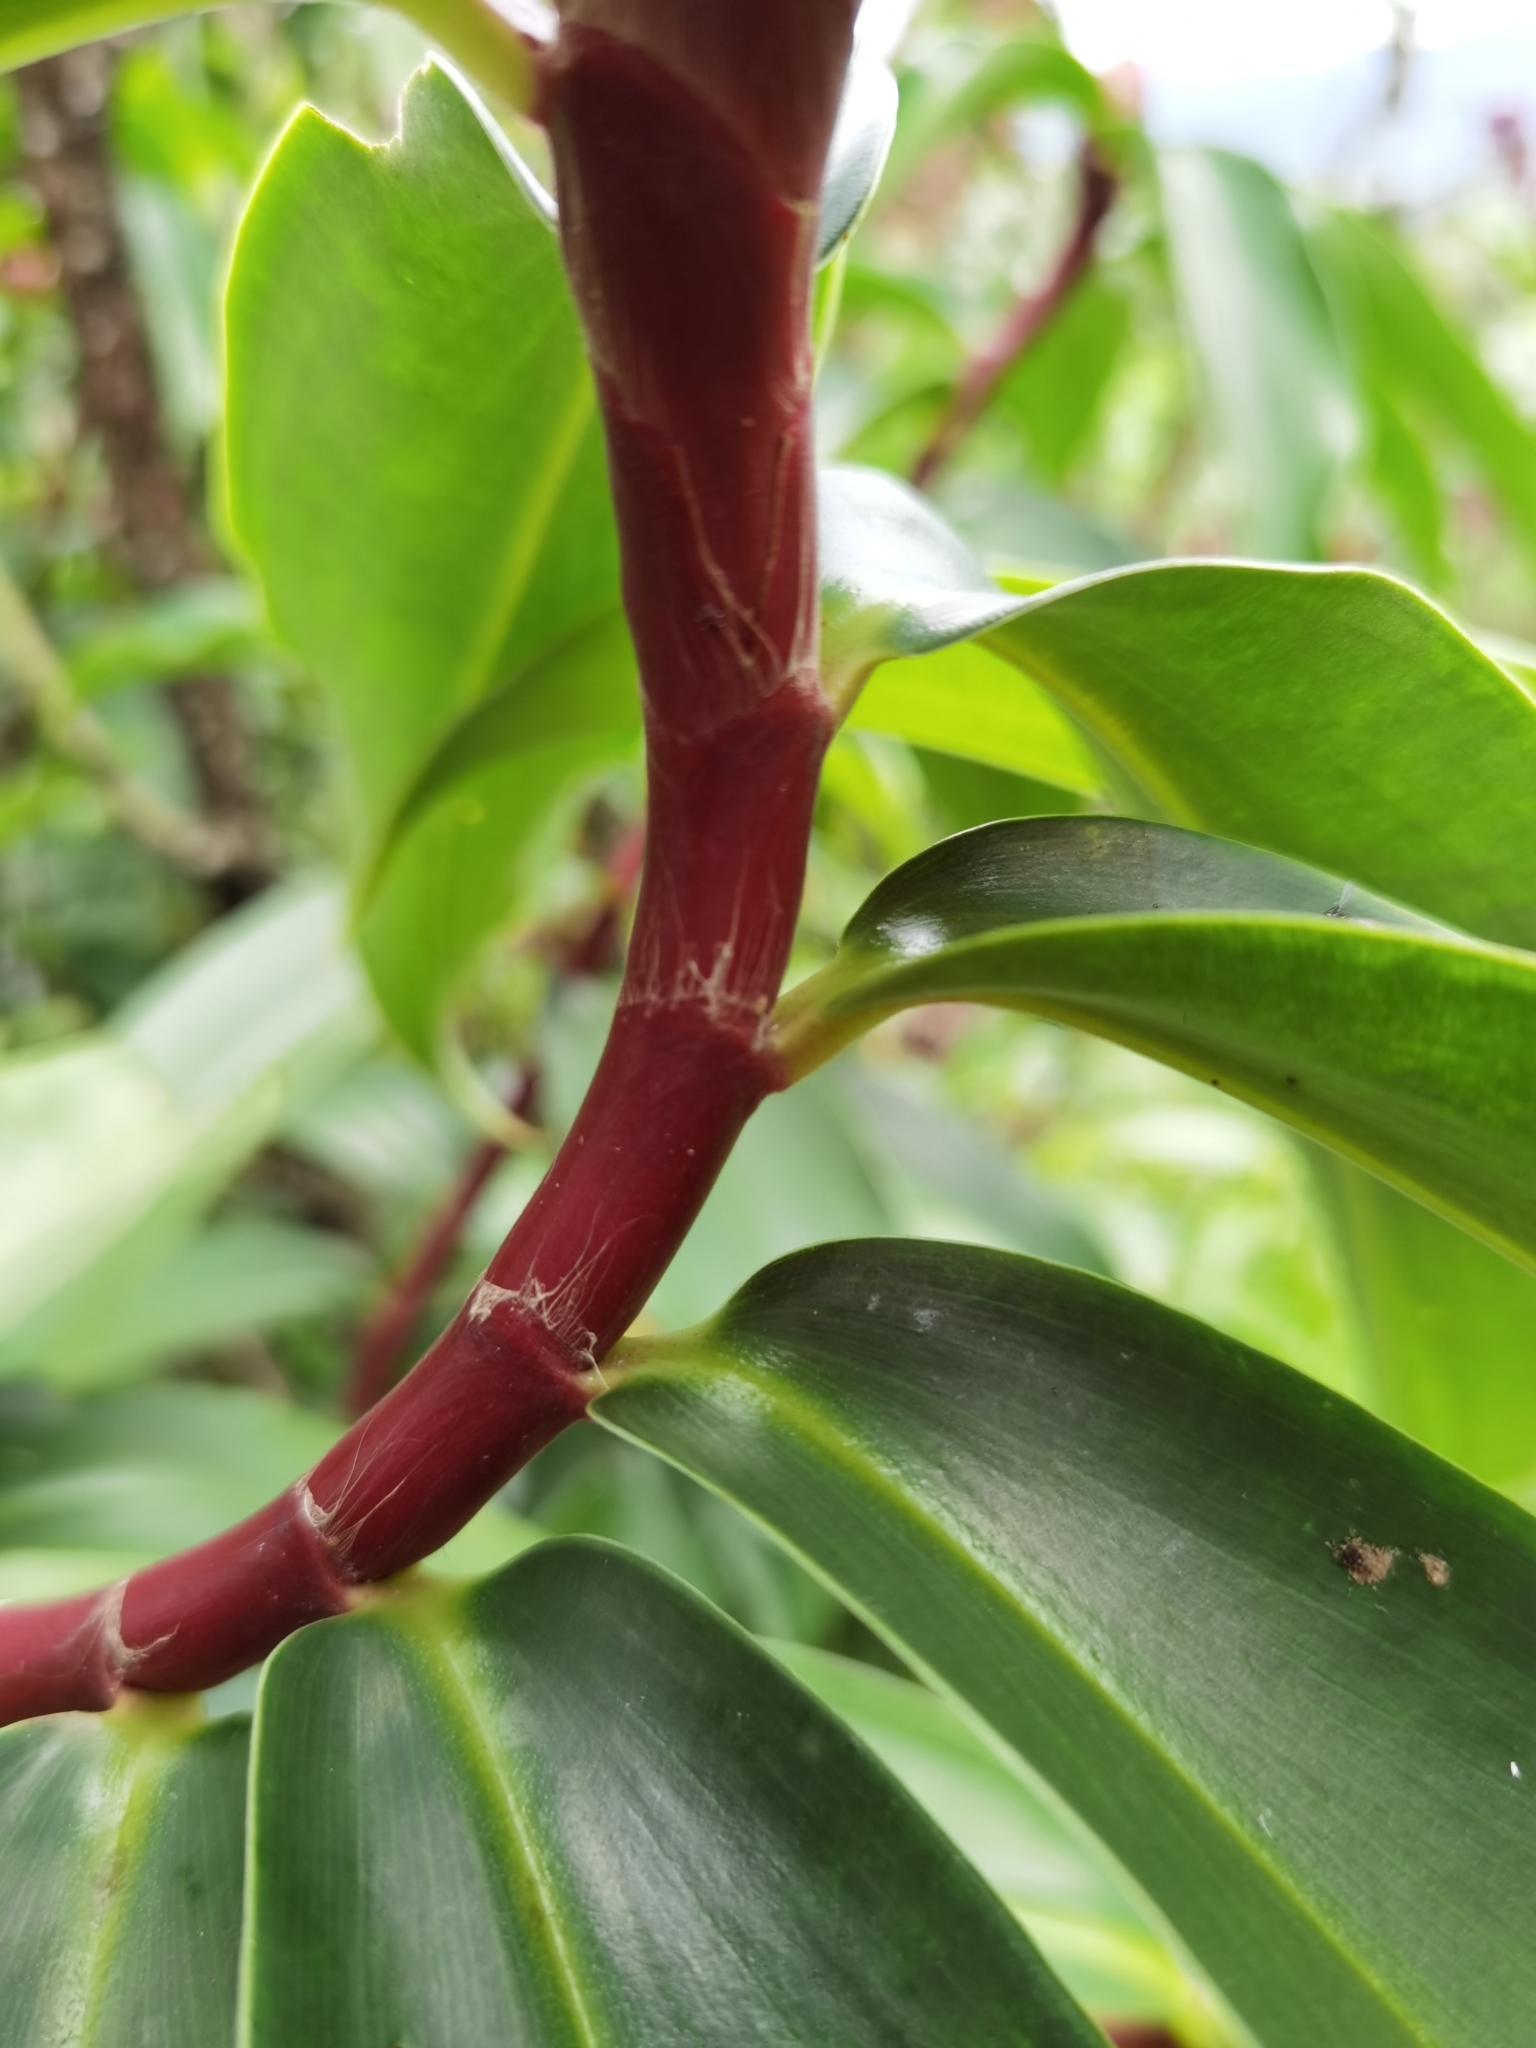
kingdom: Plantae
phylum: Tracheophyta
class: Liliopsida
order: Zingiberales
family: Costaceae
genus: Hellenia
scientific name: Hellenia speciosa
